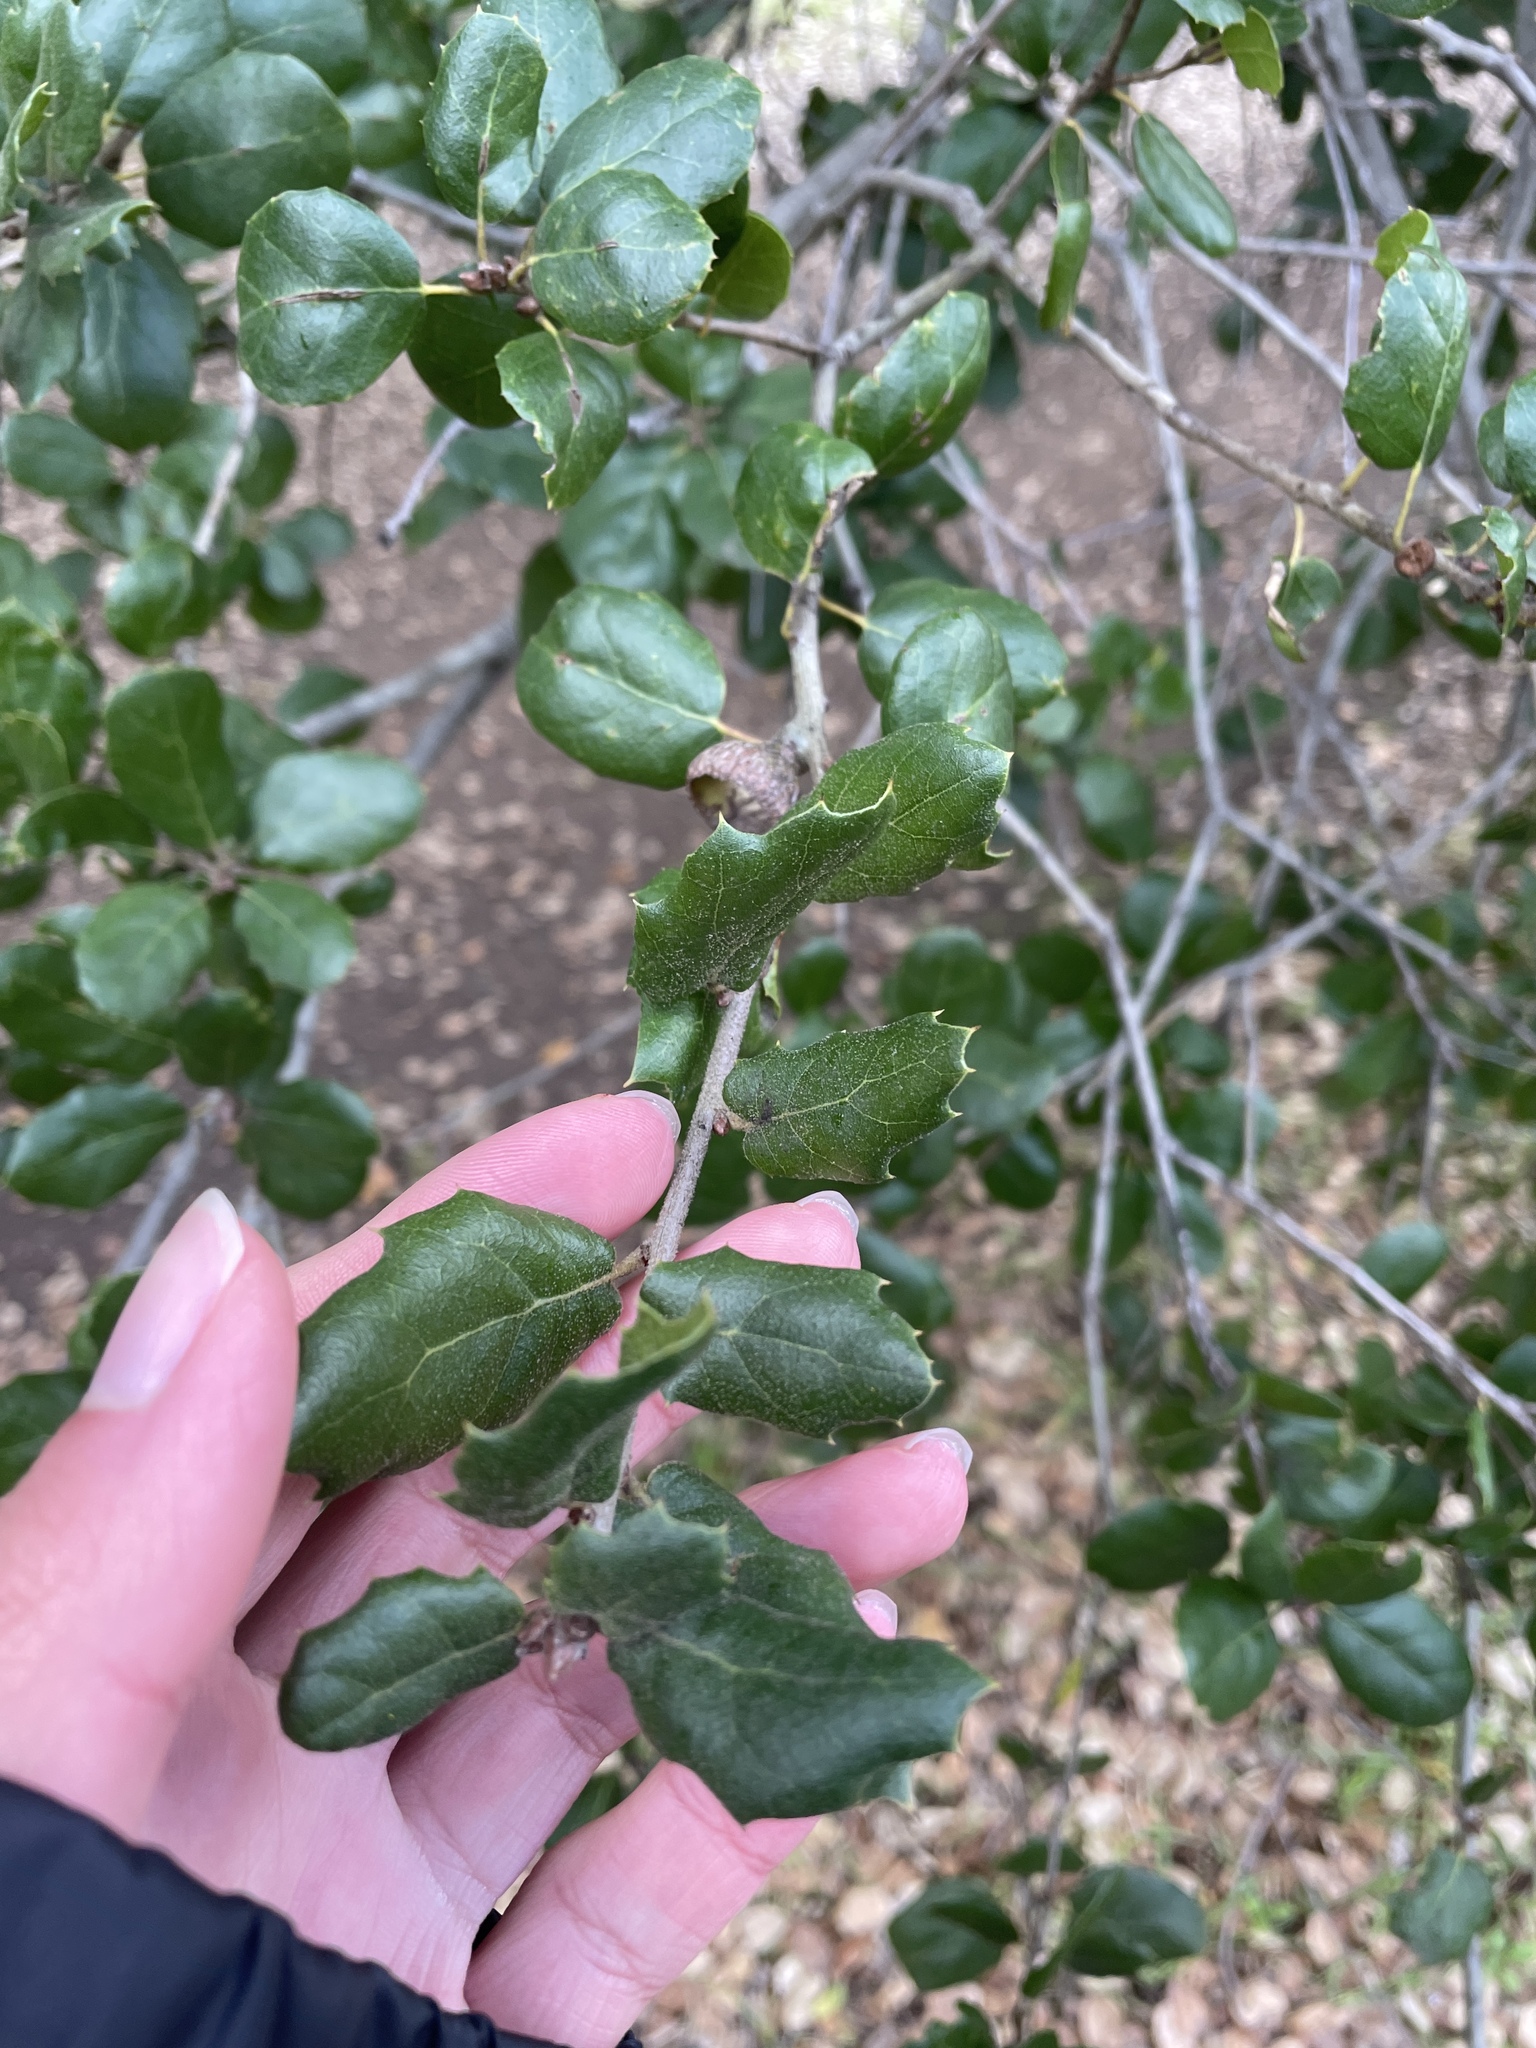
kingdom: Plantae
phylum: Tracheophyta
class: Magnoliopsida
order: Fagales
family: Fagaceae
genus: Quercus
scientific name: Quercus agrifolia
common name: California live oak
